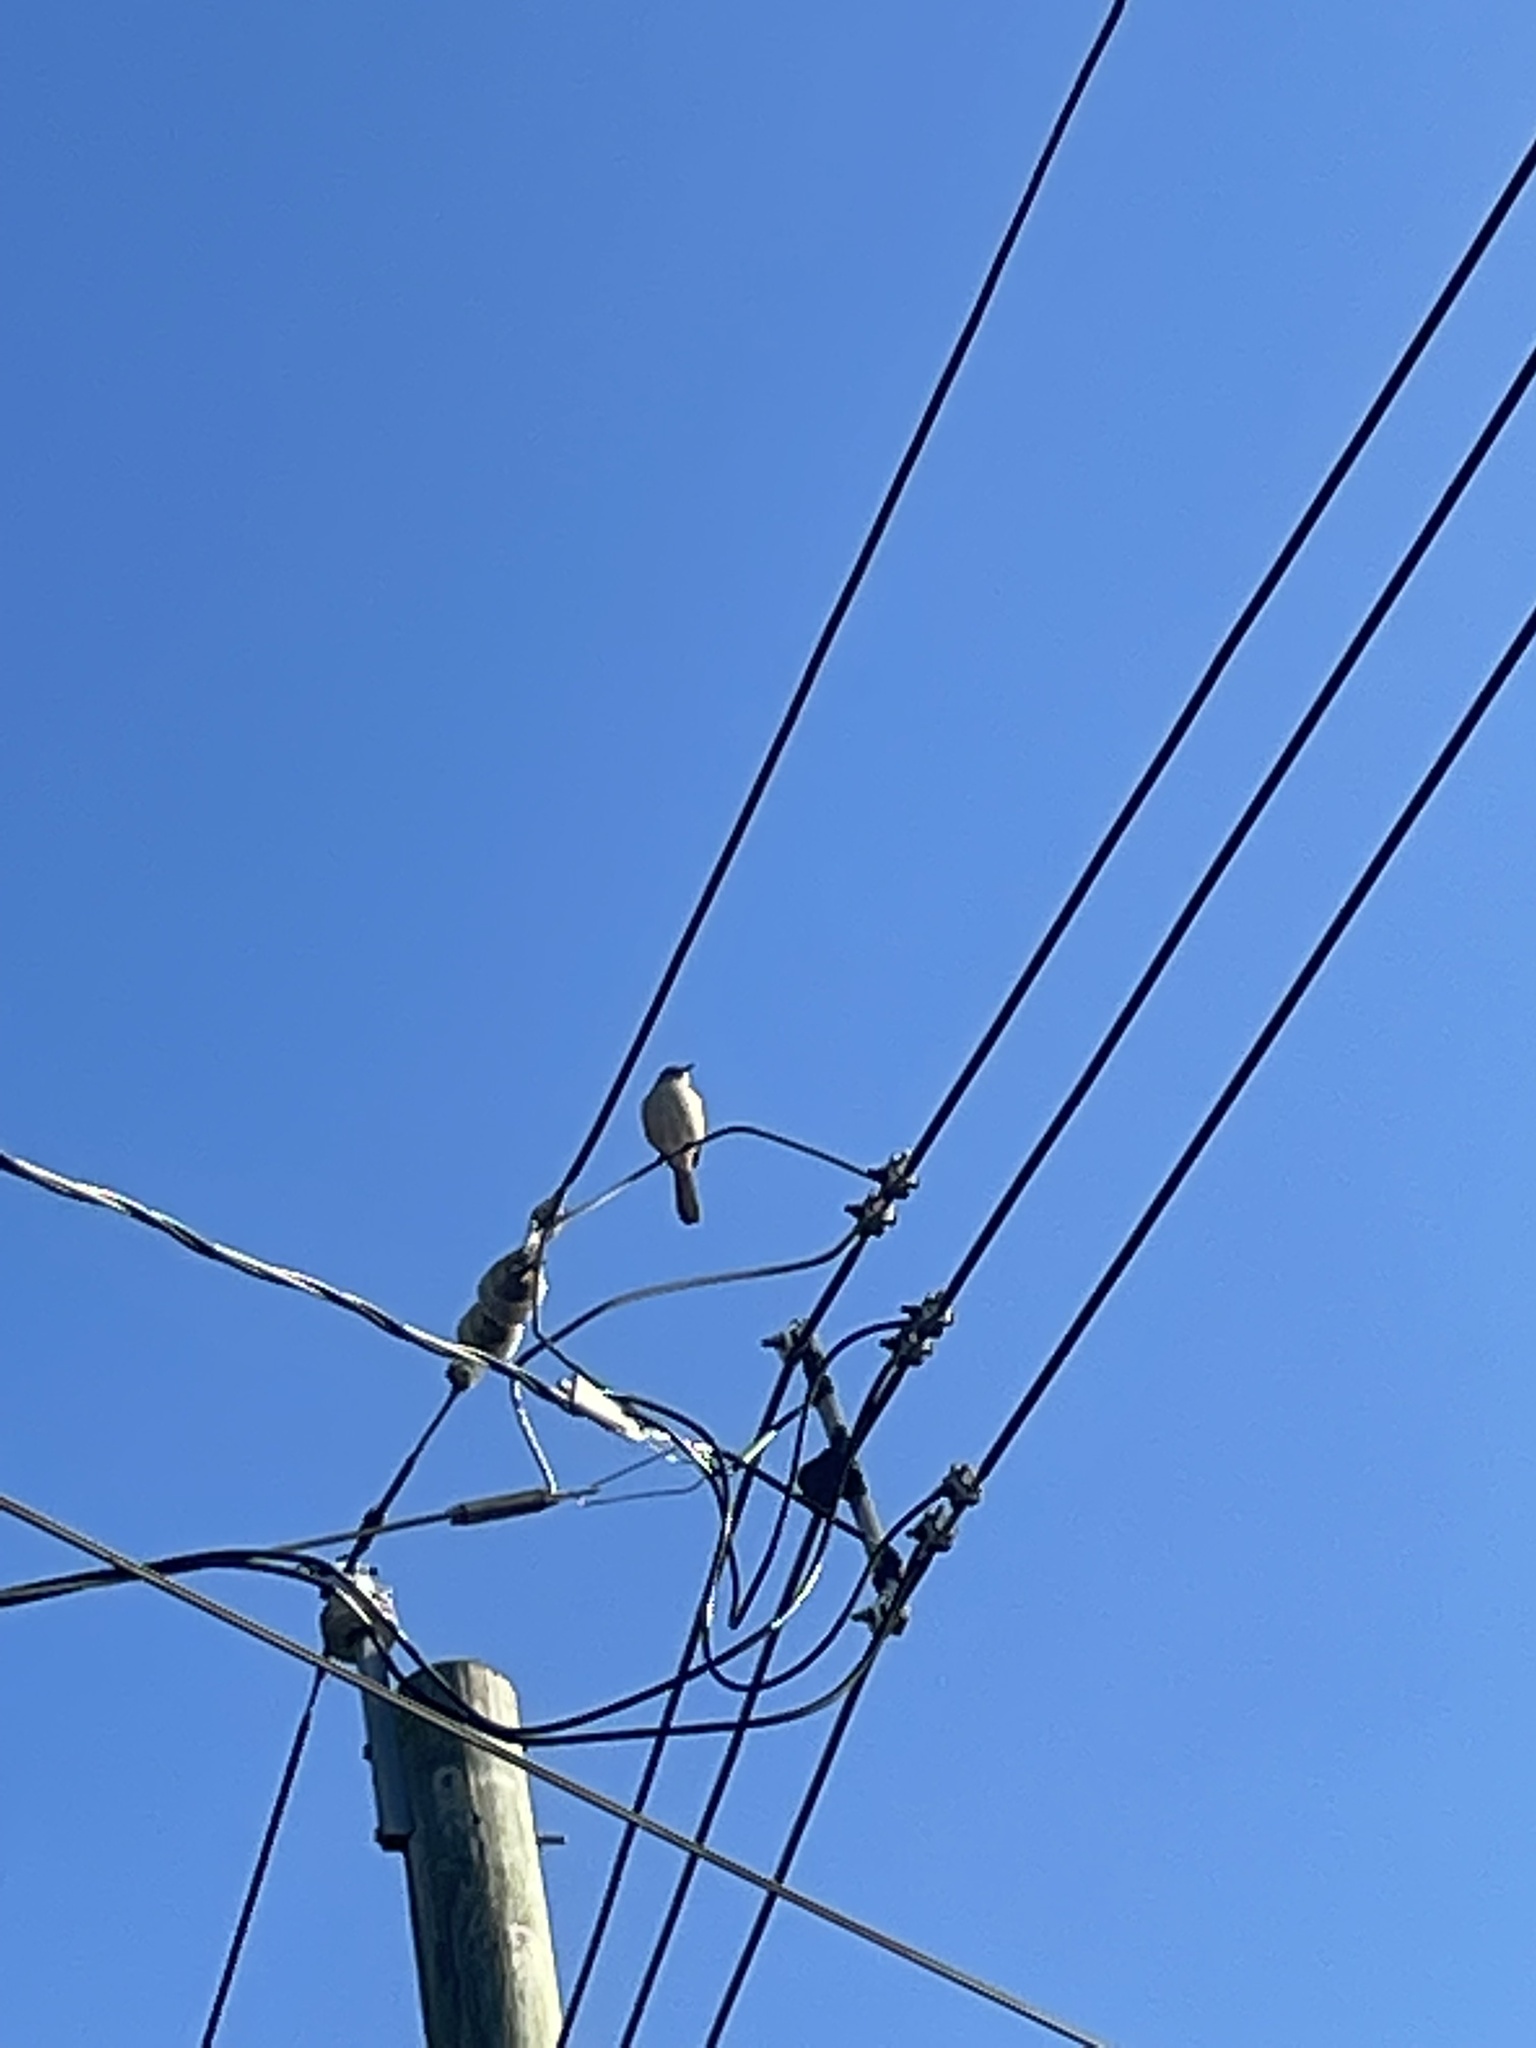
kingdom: Animalia
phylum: Chordata
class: Aves
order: Passeriformes
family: Mimidae
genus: Mimus
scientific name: Mimus polyglottos
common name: Northern mockingbird
